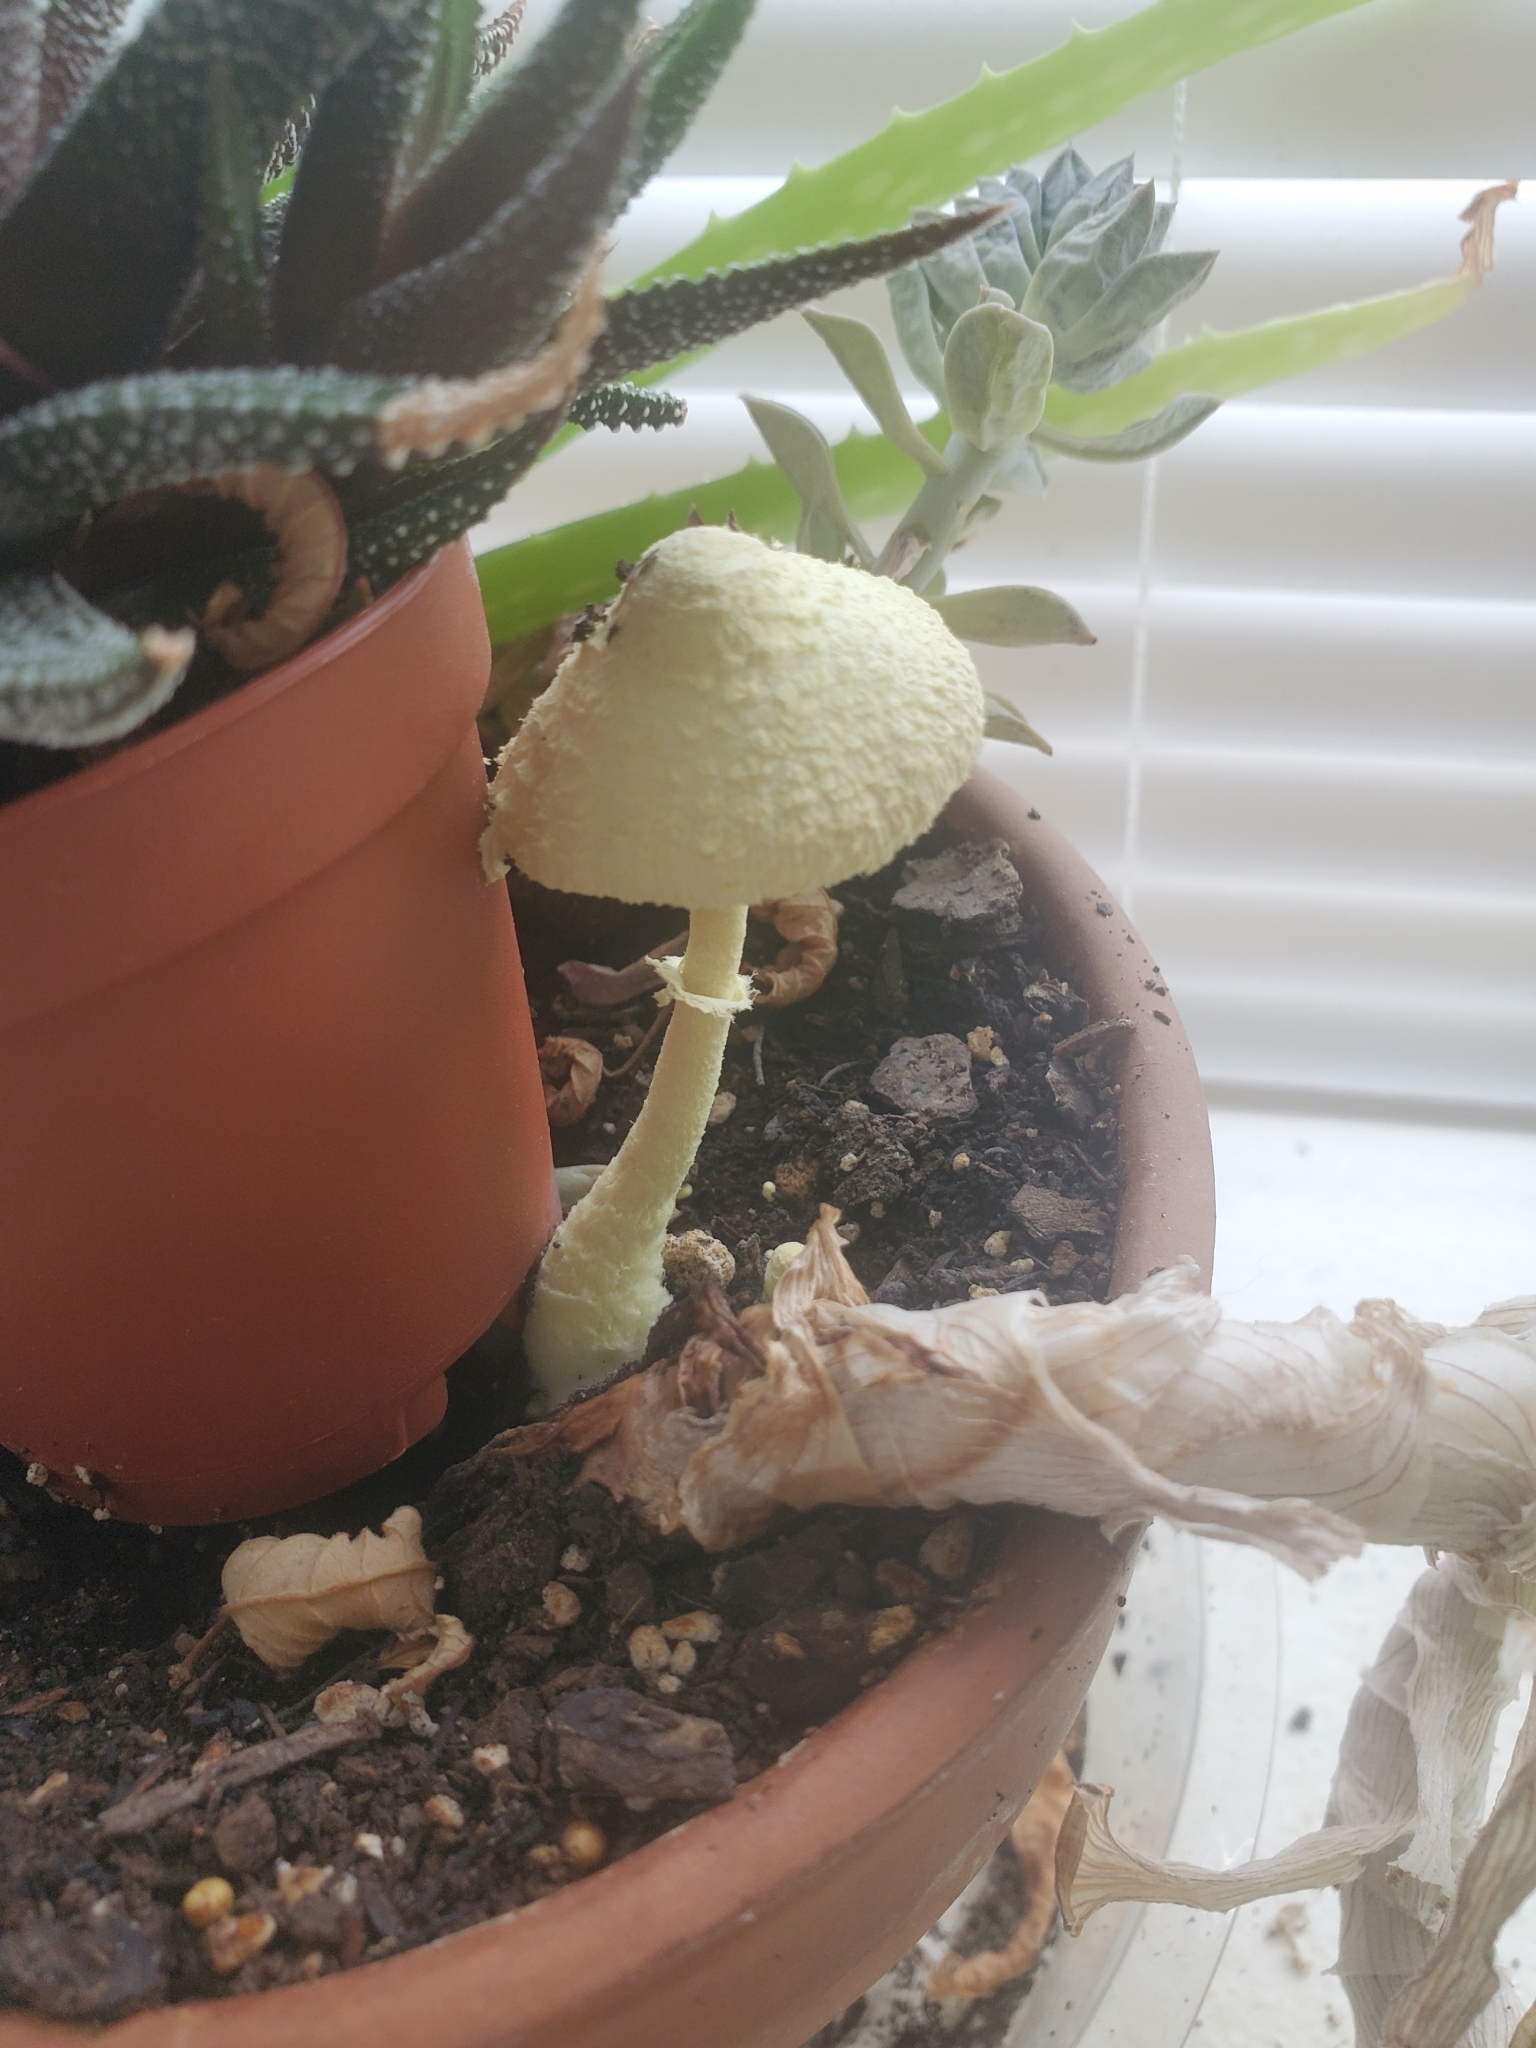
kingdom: Fungi
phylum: Basidiomycota
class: Agaricomycetes
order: Agaricales
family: Agaricaceae
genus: Leucocoprinus
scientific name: Leucocoprinus birnbaumii
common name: Plantpot dapperling
